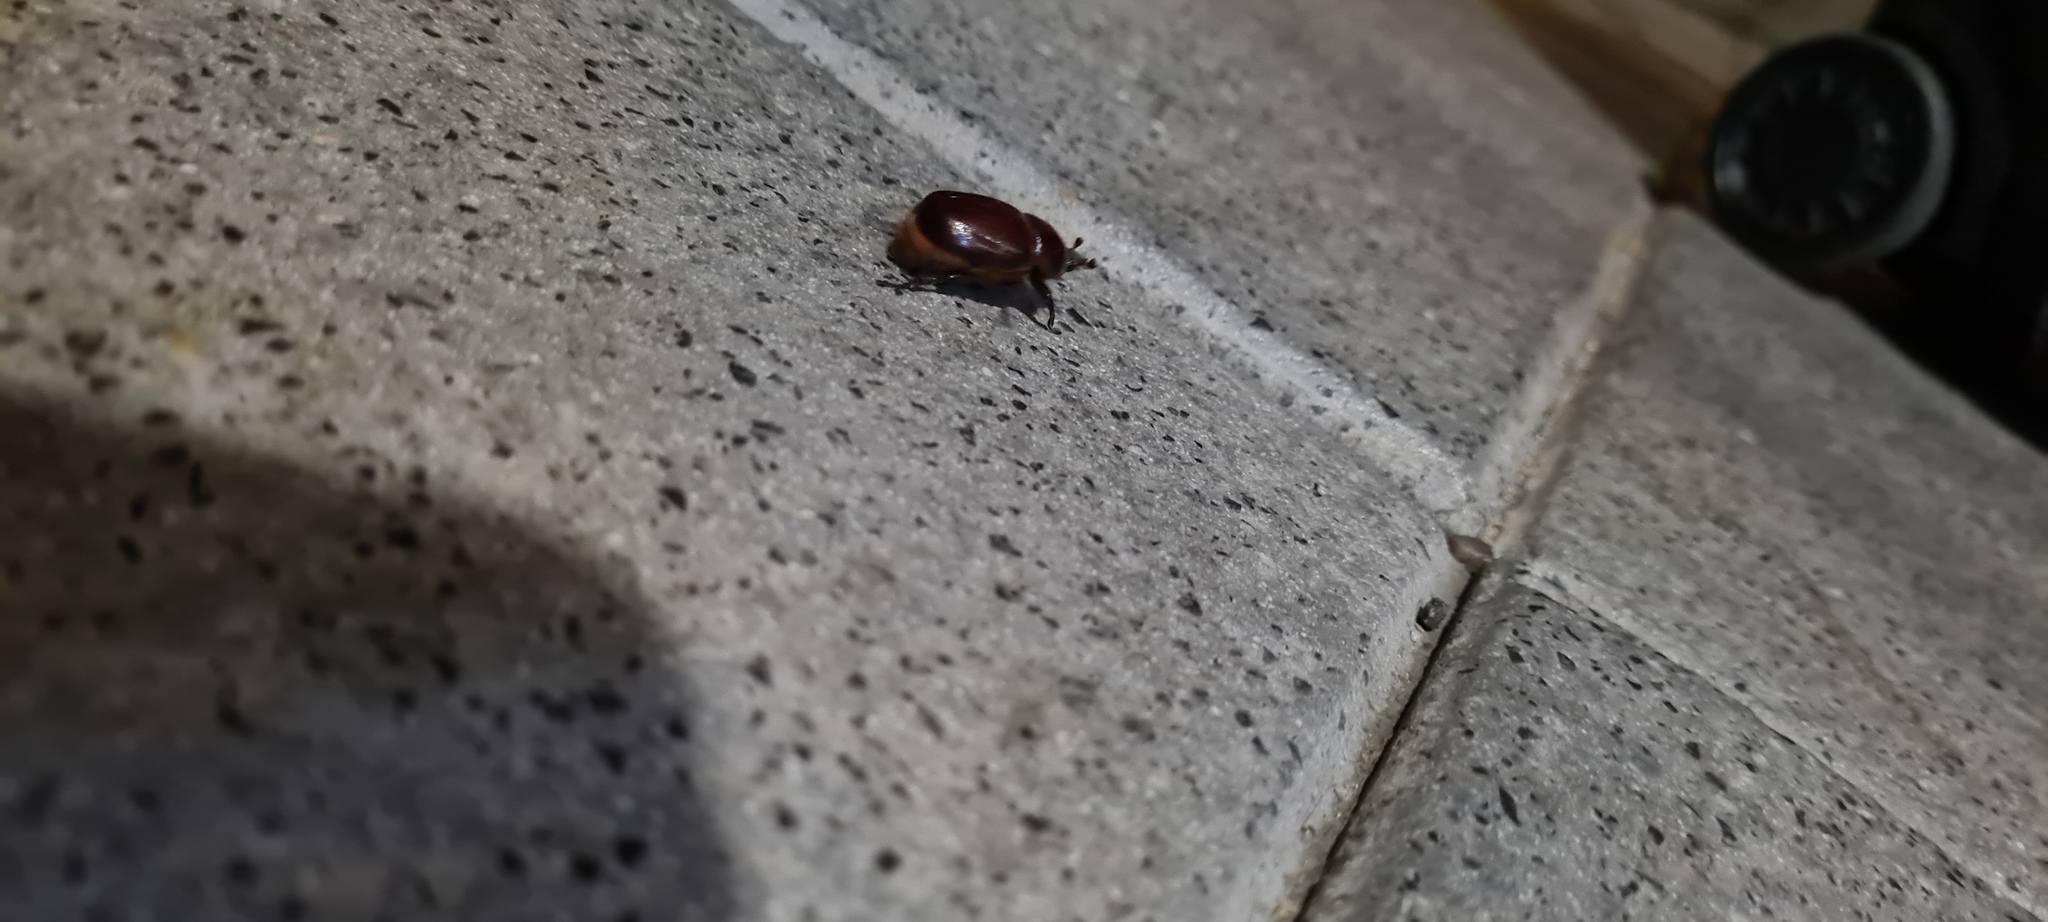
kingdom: Animalia
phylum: Arthropoda
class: Insecta
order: Coleoptera
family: Scarabaeidae
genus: Phyllognathus
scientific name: Phyllognathus excavatus
